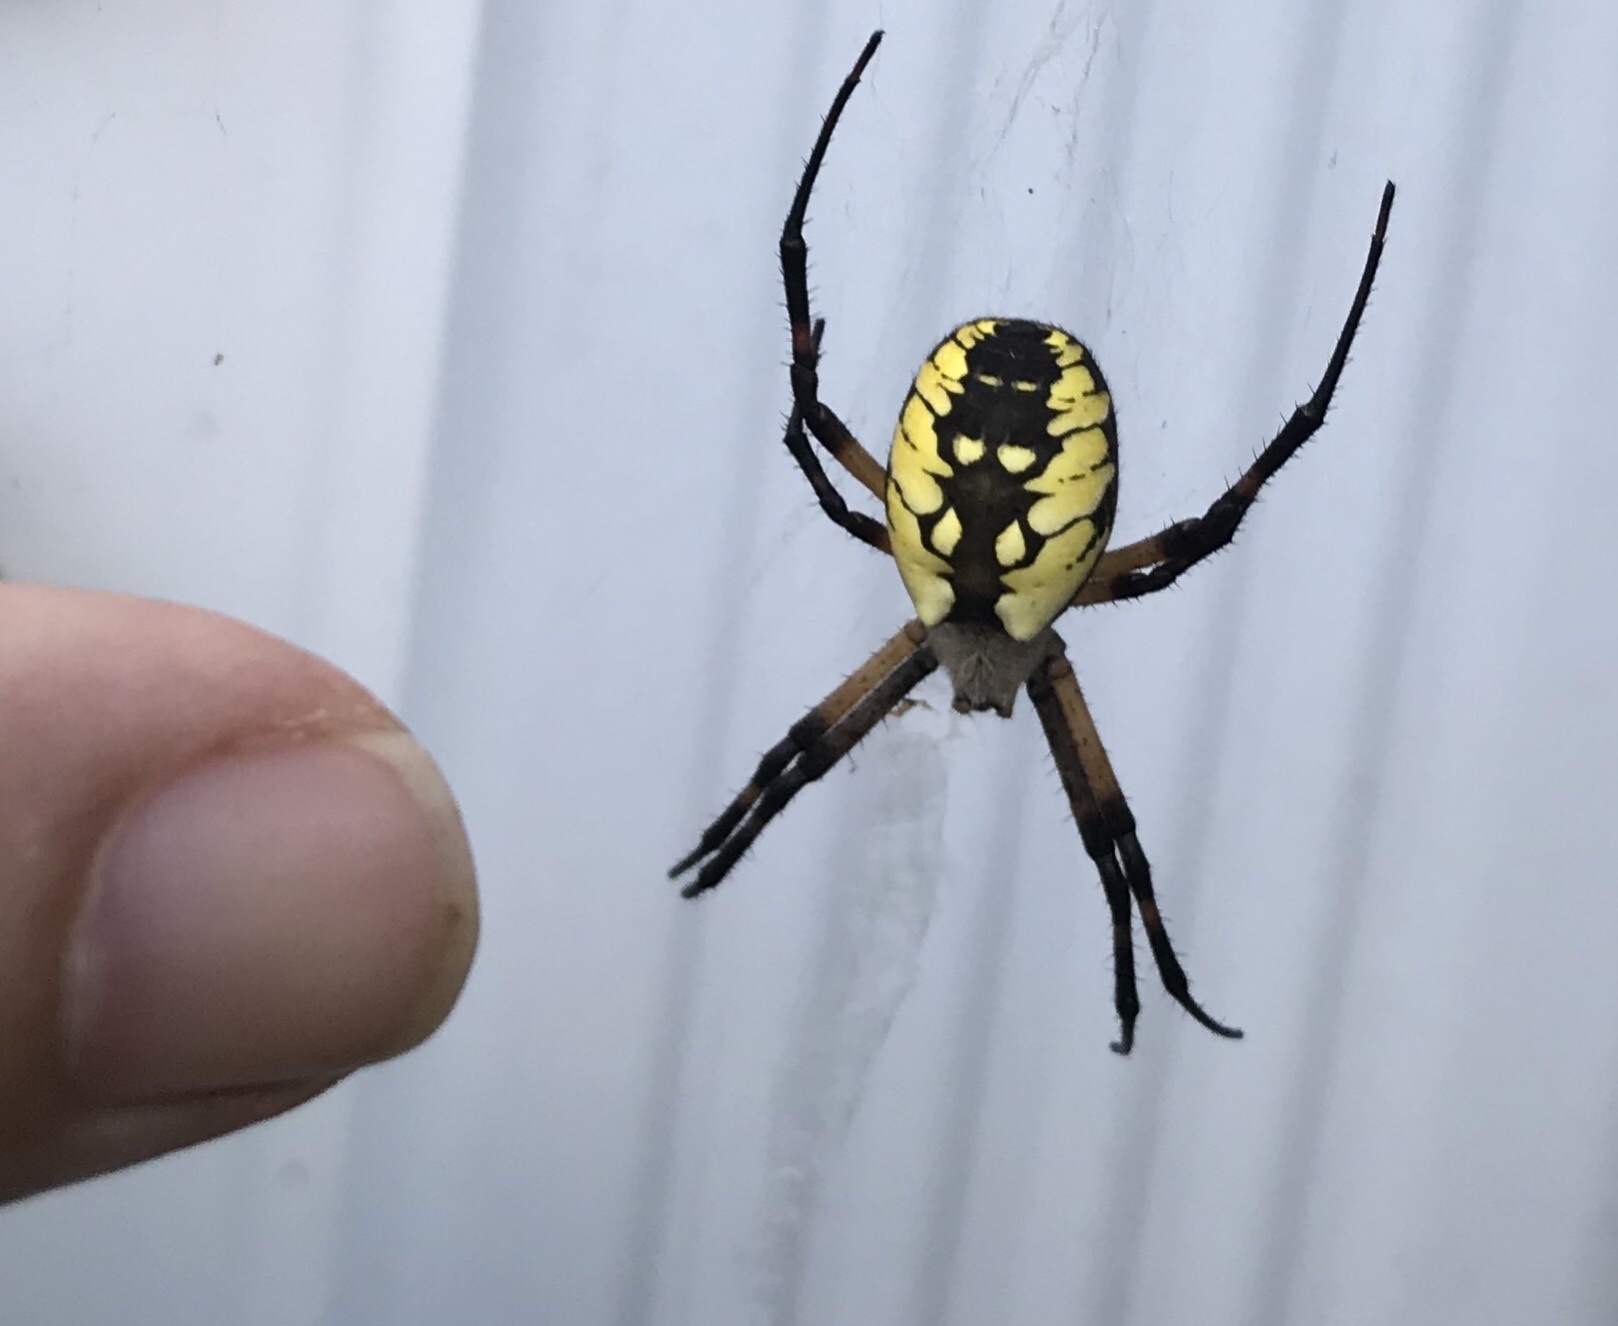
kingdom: Animalia
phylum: Arthropoda
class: Arachnida
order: Araneae
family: Araneidae
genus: Argiope
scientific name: Argiope aurantia
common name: Orb weavers
